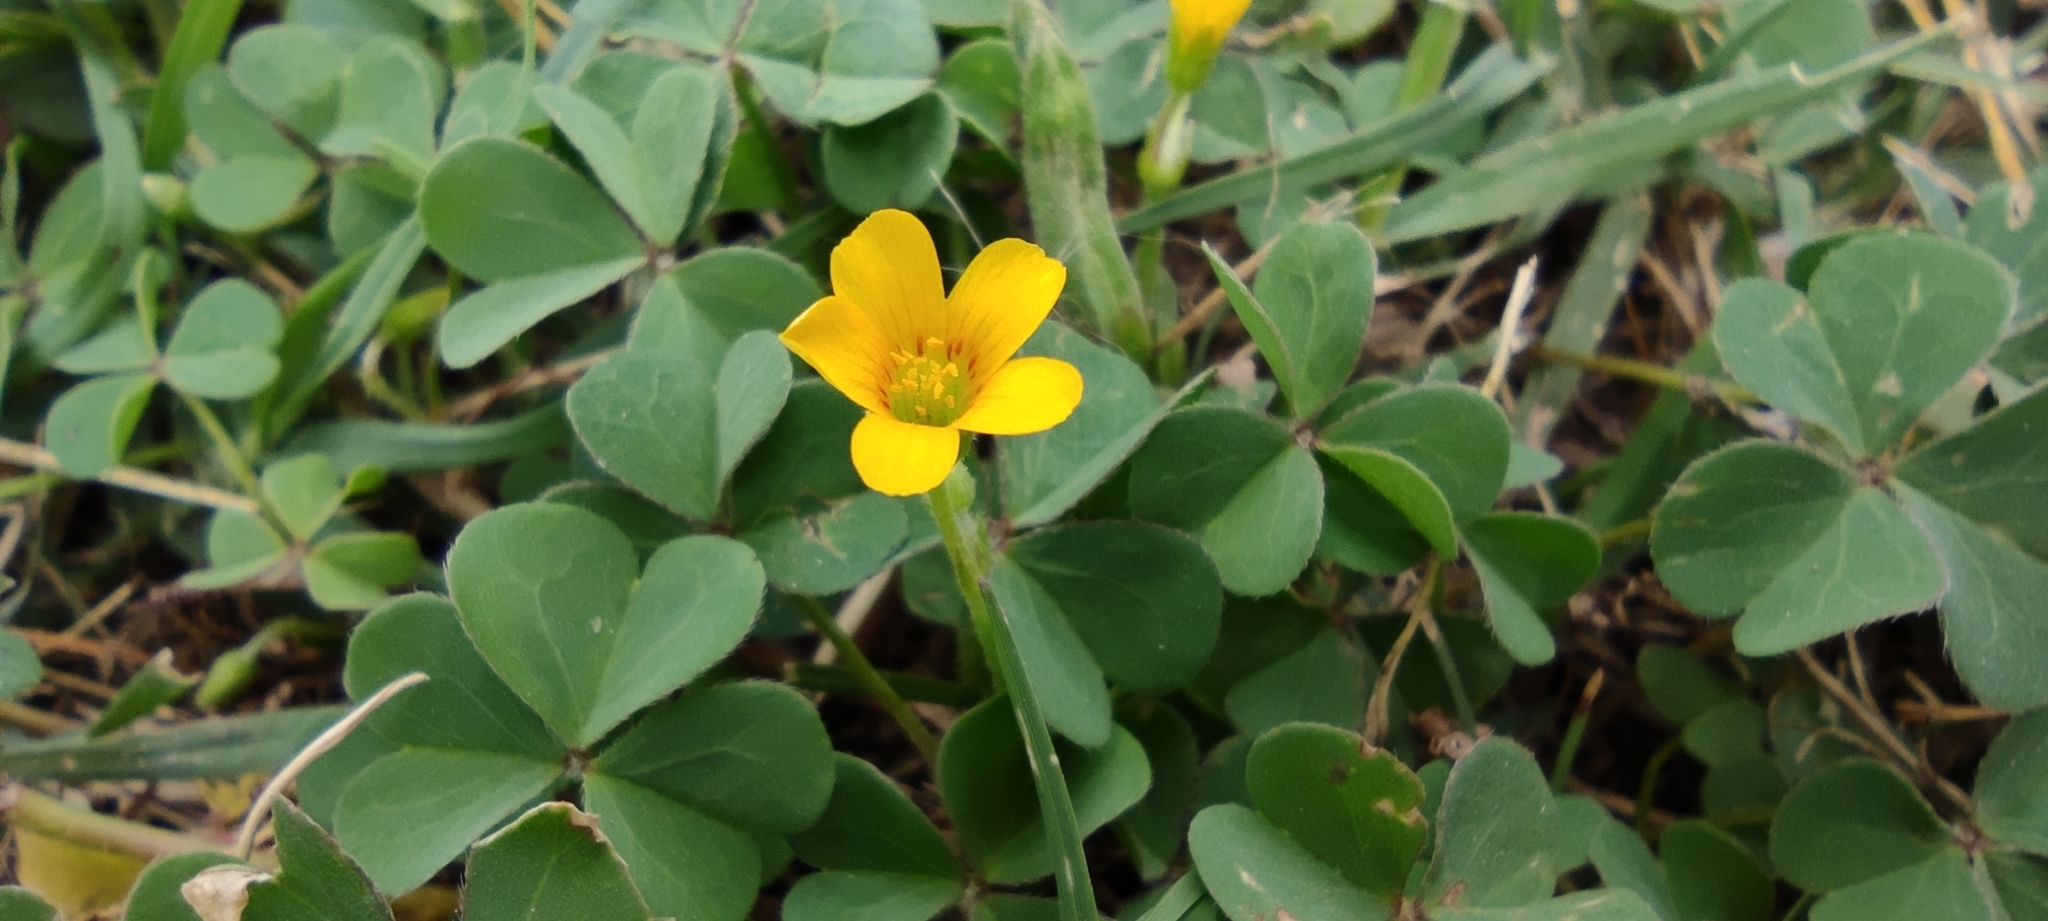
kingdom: Plantae
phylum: Tracheophyta
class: Magnoliopsida
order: Oxalidales
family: Oxalidaceae
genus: Oxalis
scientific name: Oxalis corniculata
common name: Procumbent yellow-sorrel
